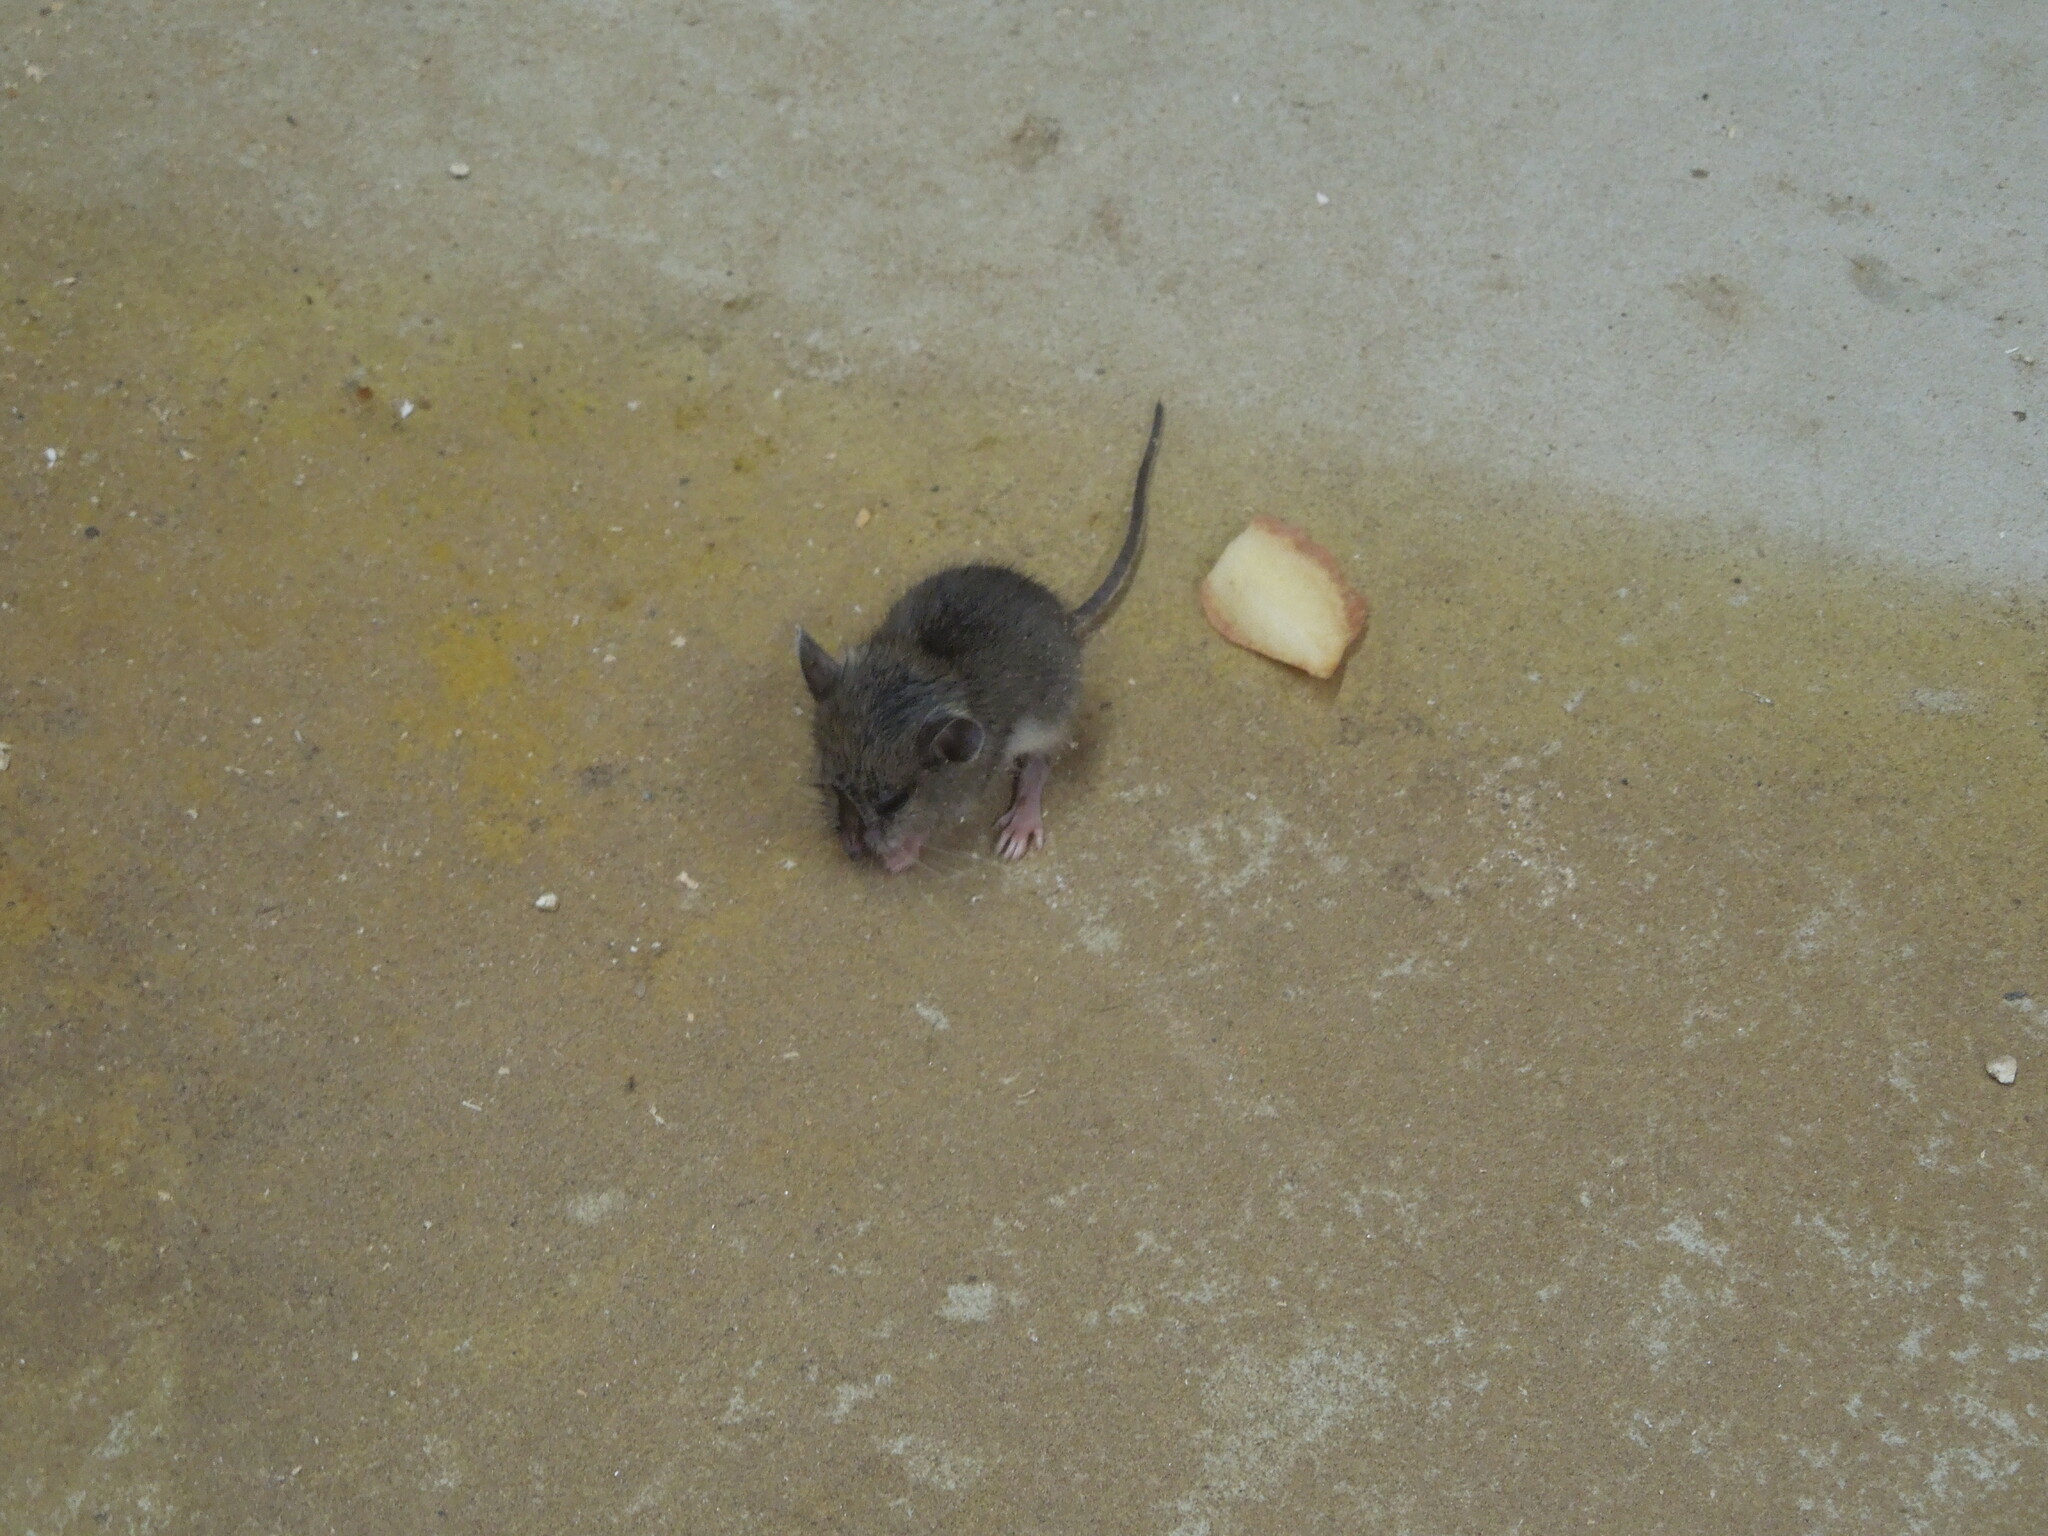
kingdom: Animalia
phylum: Chordata
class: Mammalia
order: Rodentia
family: Cricetidae
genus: Peromyscus
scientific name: Peromyscus leucopus
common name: White-footed deermouse
